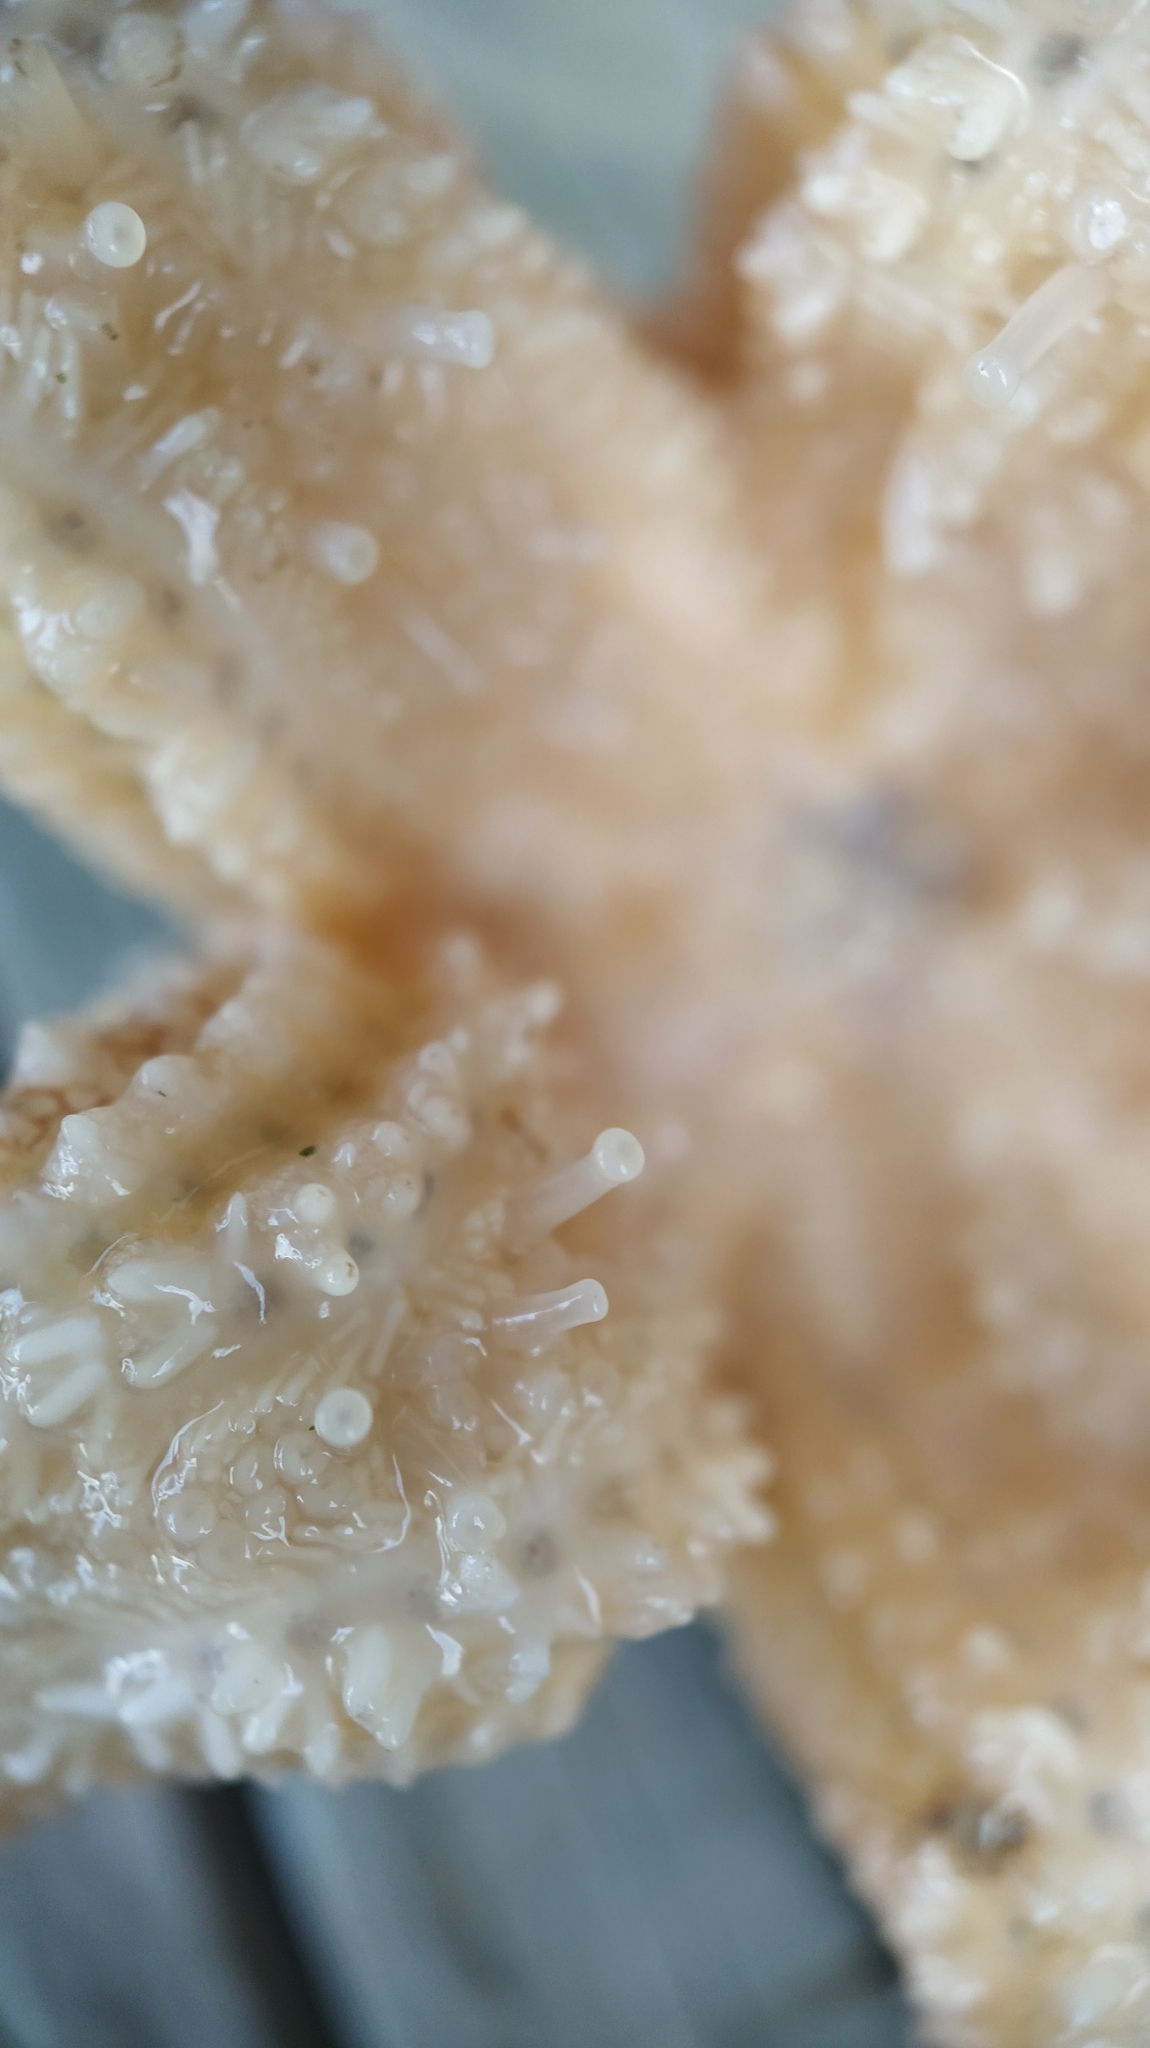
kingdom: Animalia
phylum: Echinodermata
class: Asteroidea
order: Forcipulatida
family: Asteriidae
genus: Asterias
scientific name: Asterias rubens
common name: Common starfish
